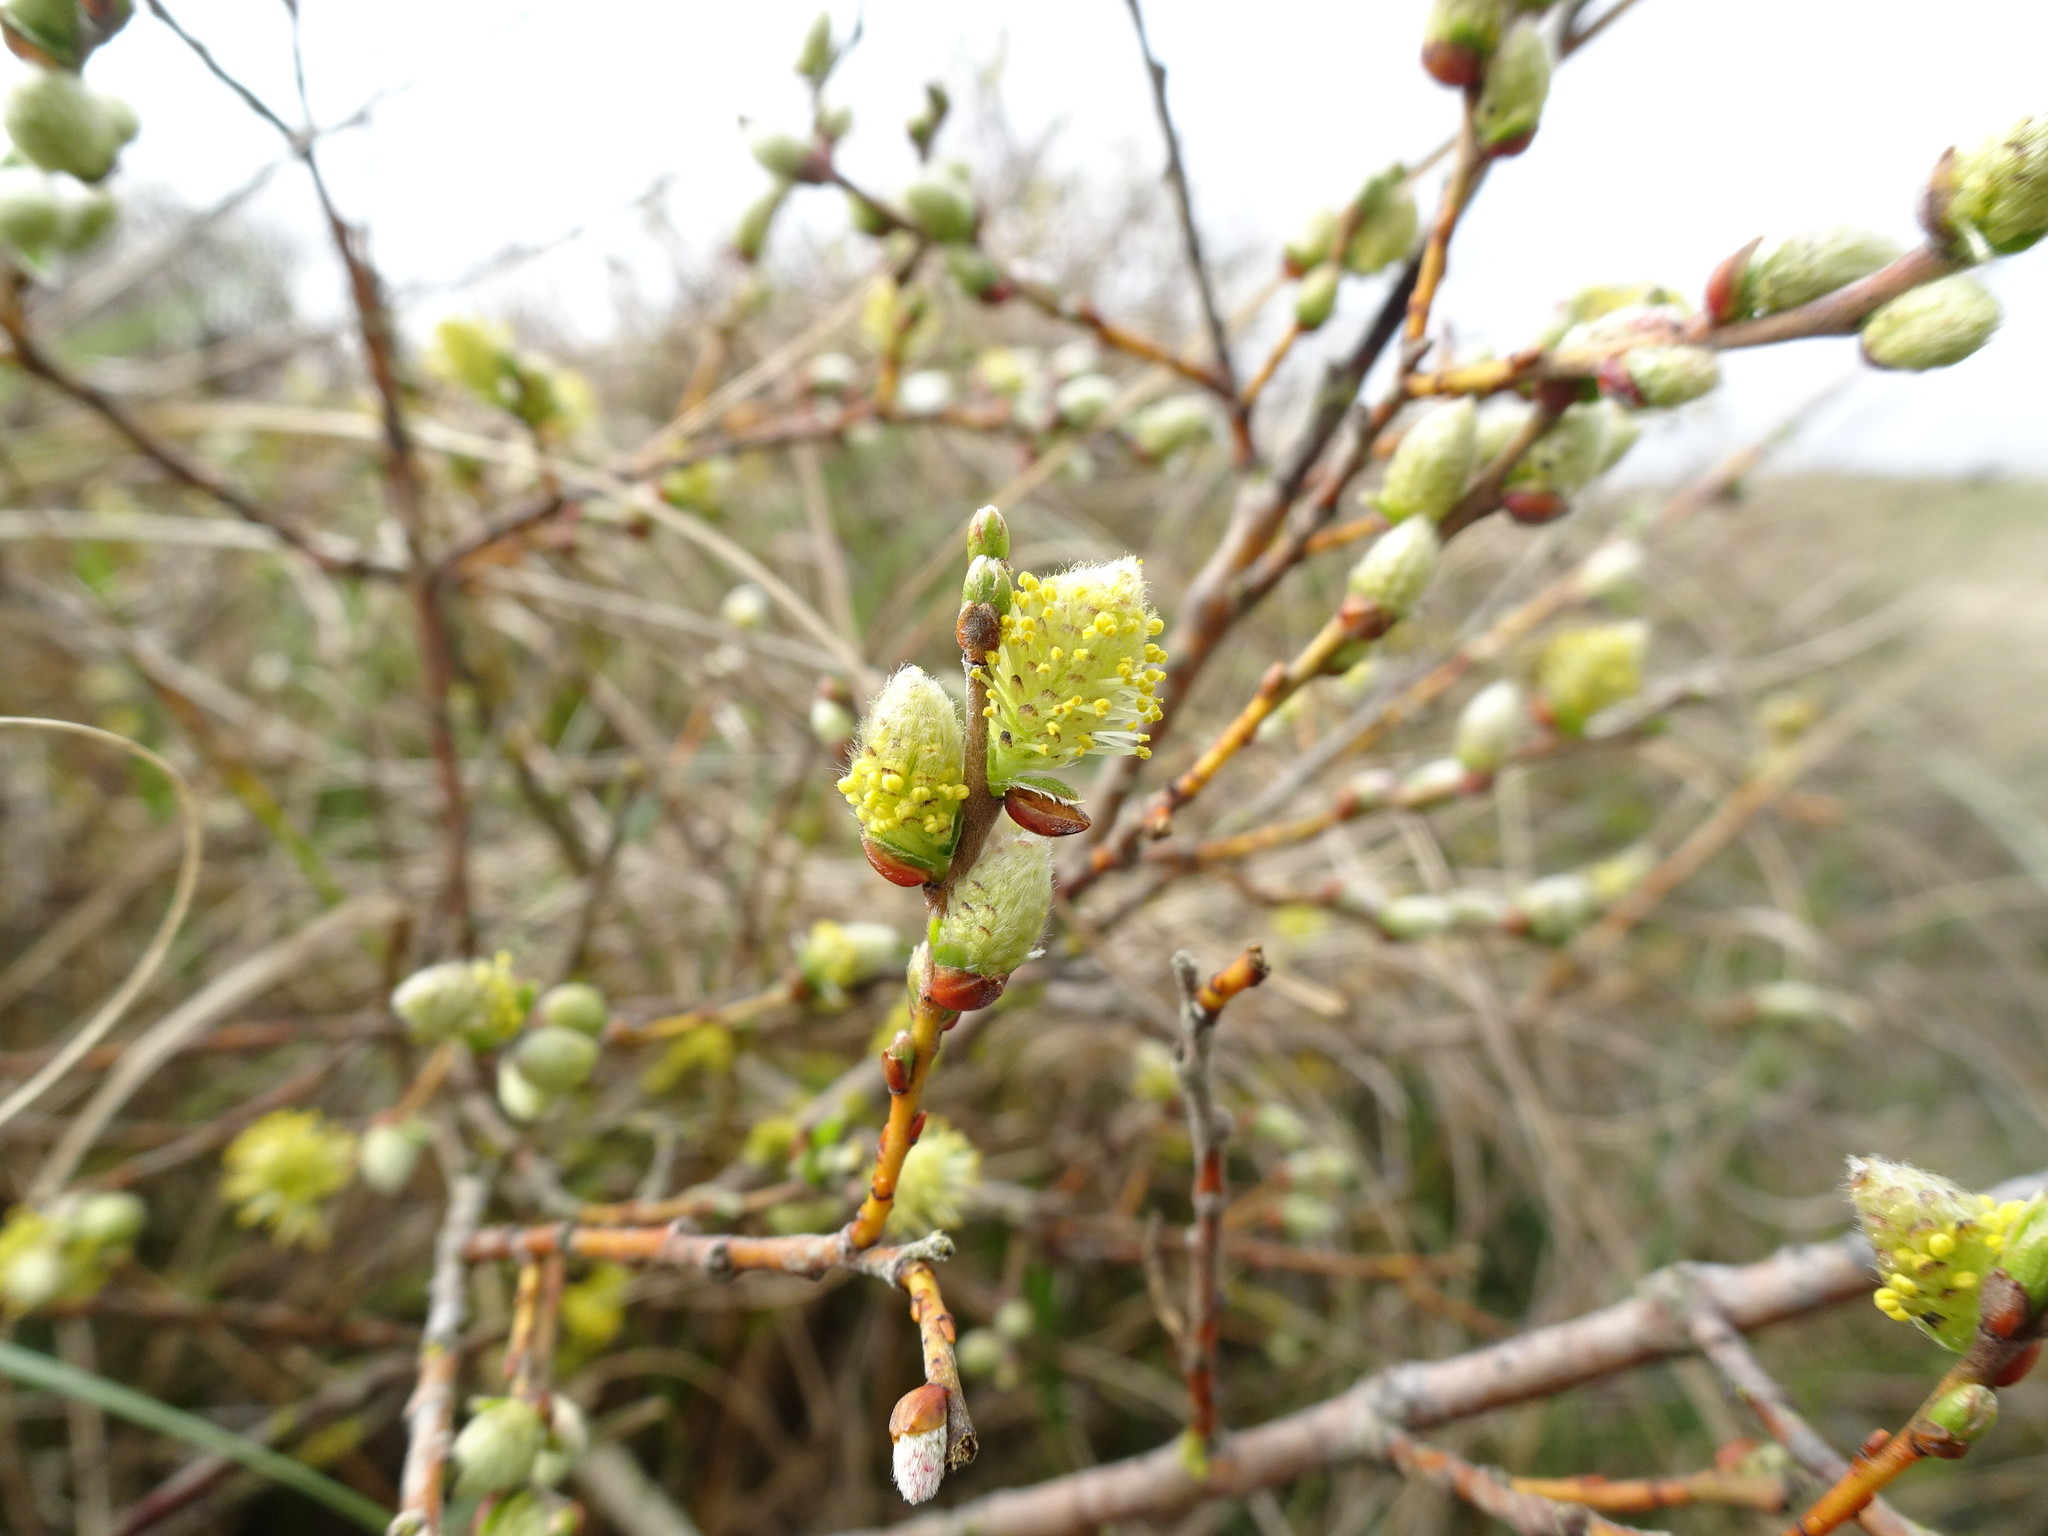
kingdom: Plantae
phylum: Tracheophyta
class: Magnoliopsida
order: Malpighiales
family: Salicaceae
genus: Salix
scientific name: Salix repens
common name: Creeping willow
